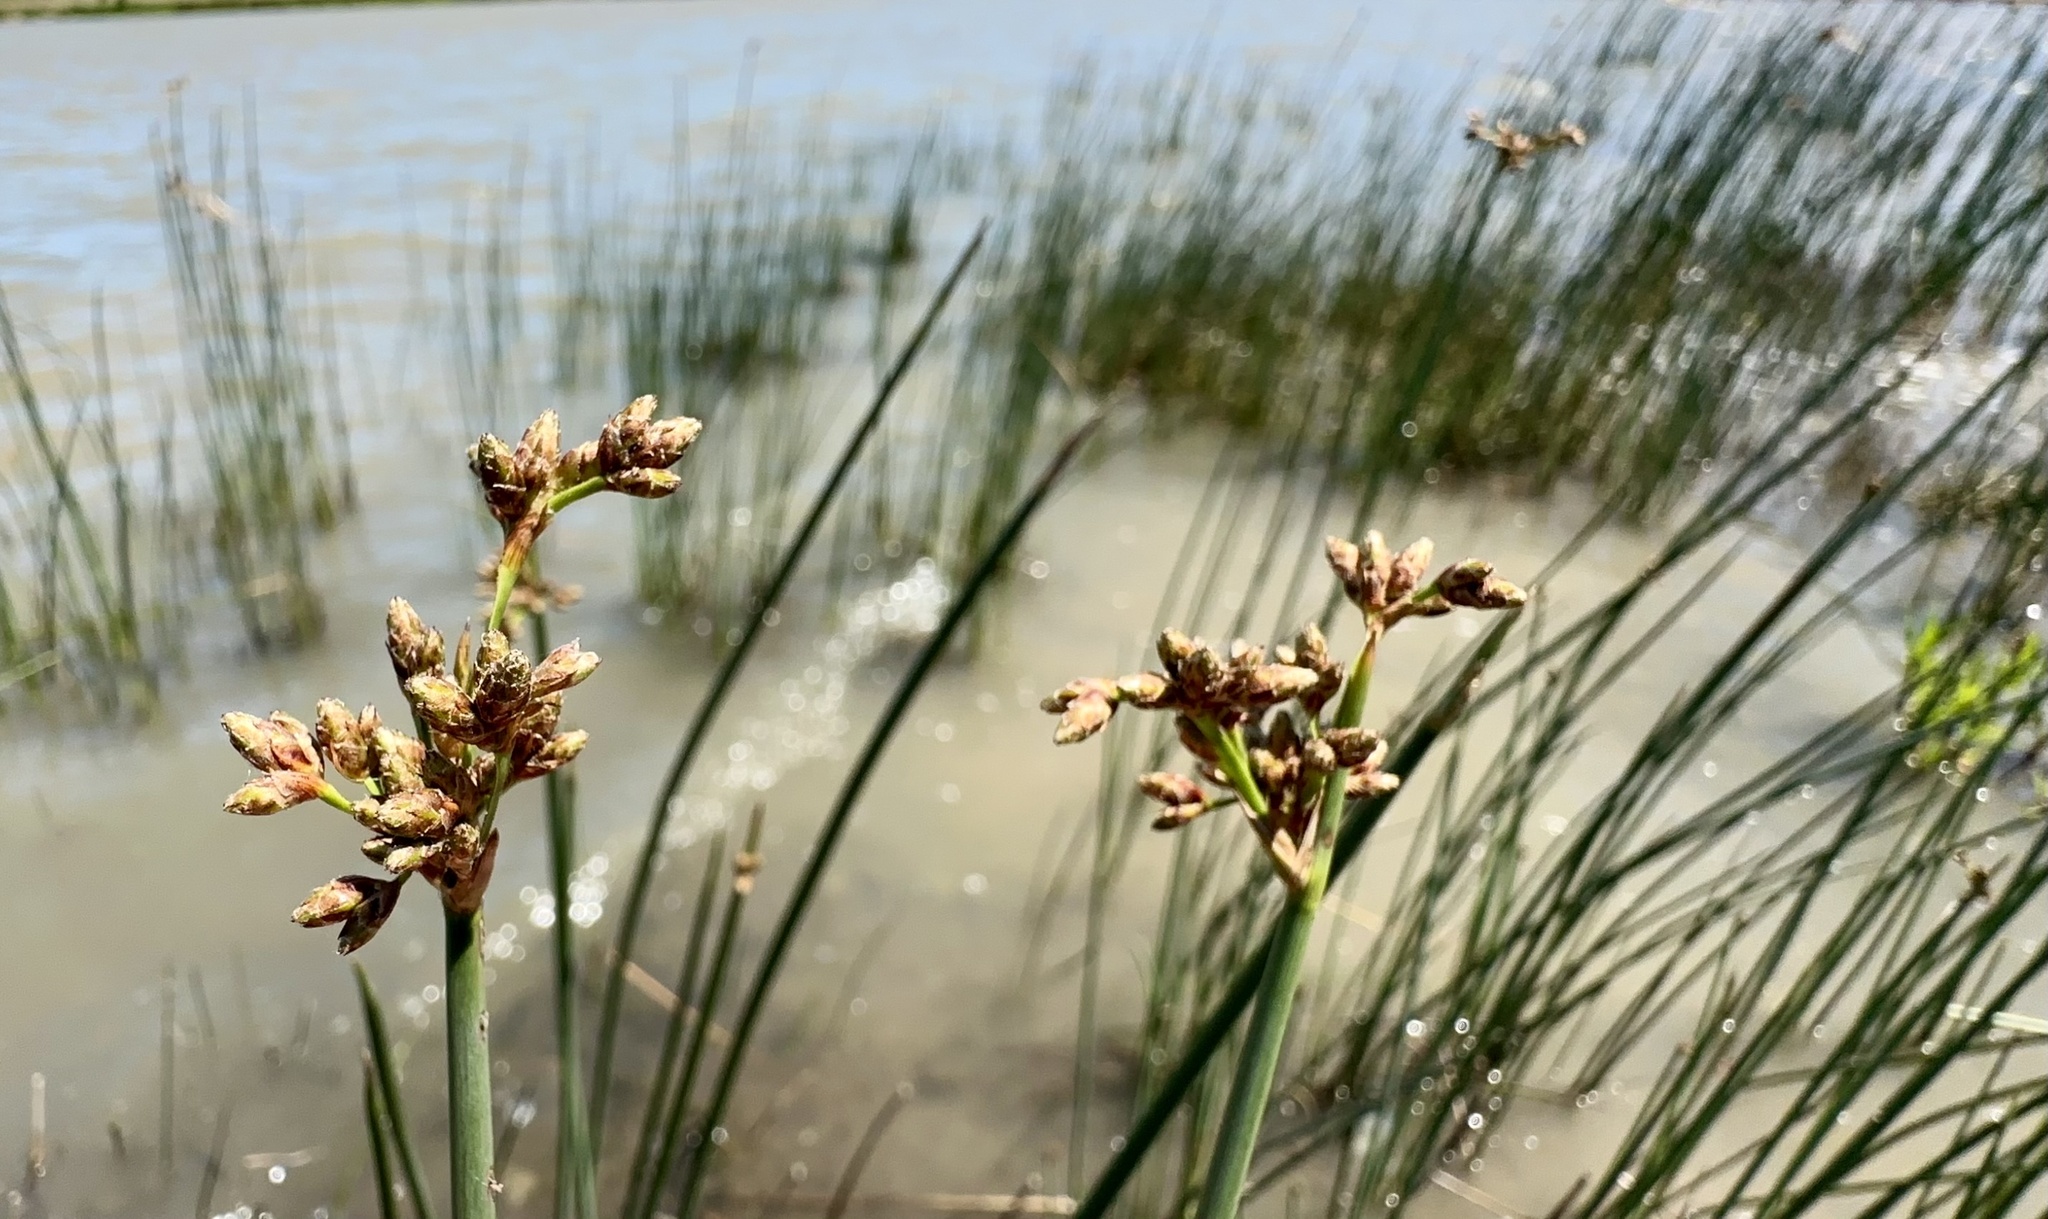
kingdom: Plantae
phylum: Tracheophyta
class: Liliopsida
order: Poales
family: Cyperaceae
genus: Schoenoplectus
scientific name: Schoenoplectus tabernaemontani
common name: Grey club-rush
